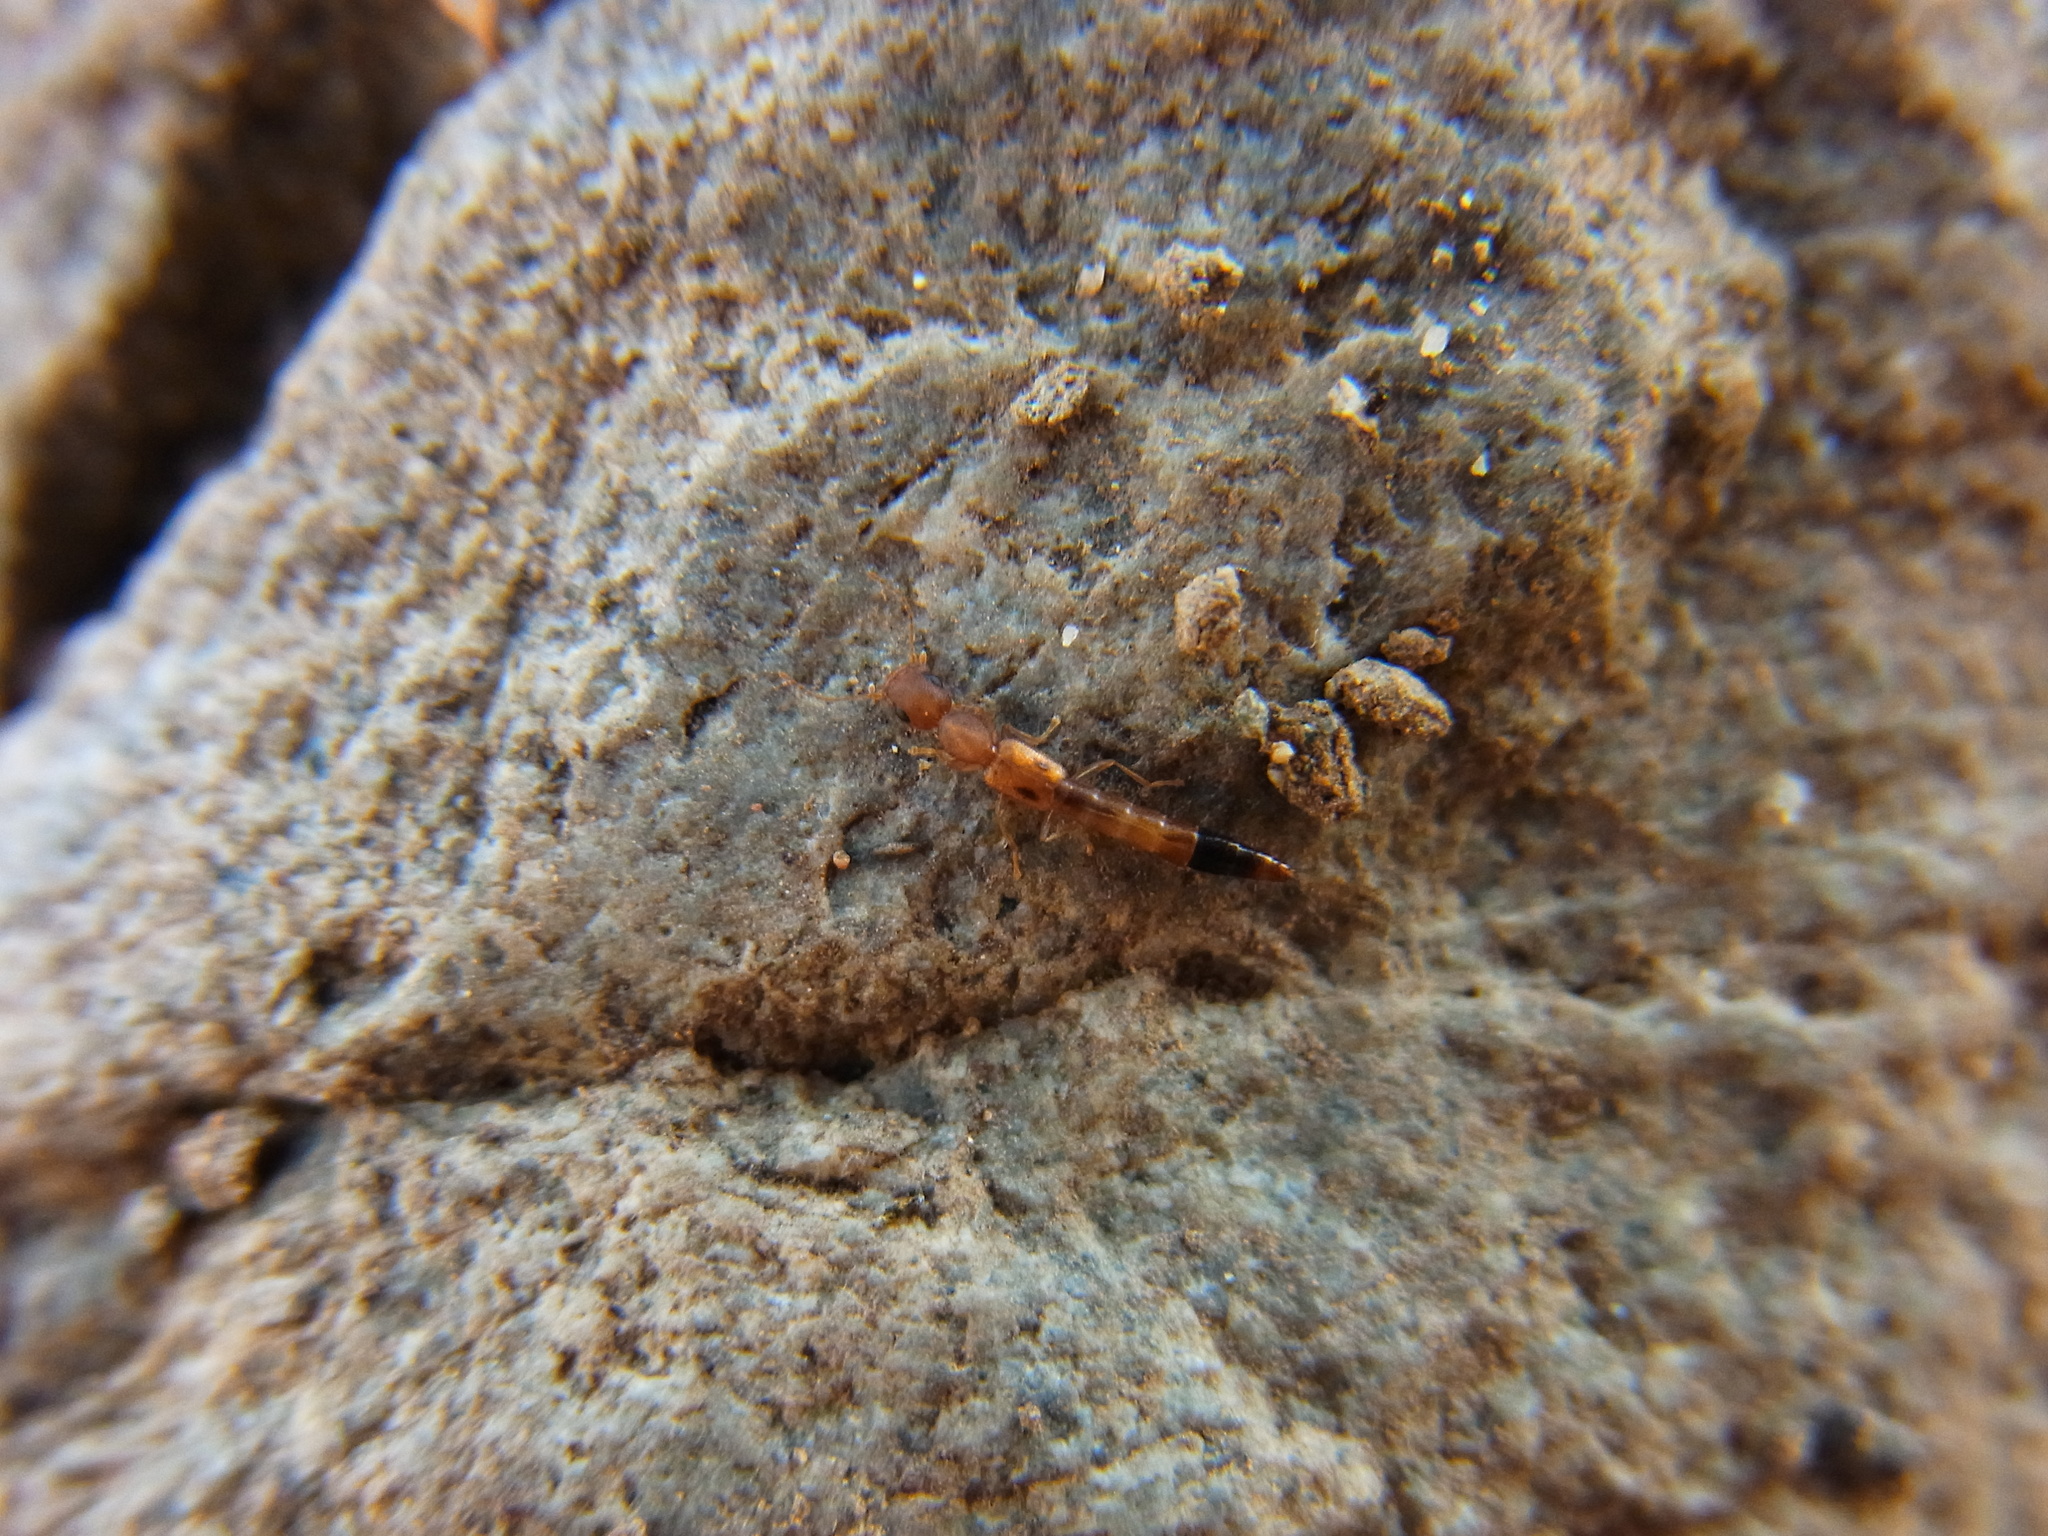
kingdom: Animalia
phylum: Arthropoda
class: Insecta
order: Coleoptera
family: Staphylinidae
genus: Astenus
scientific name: Astenus maculipennis
